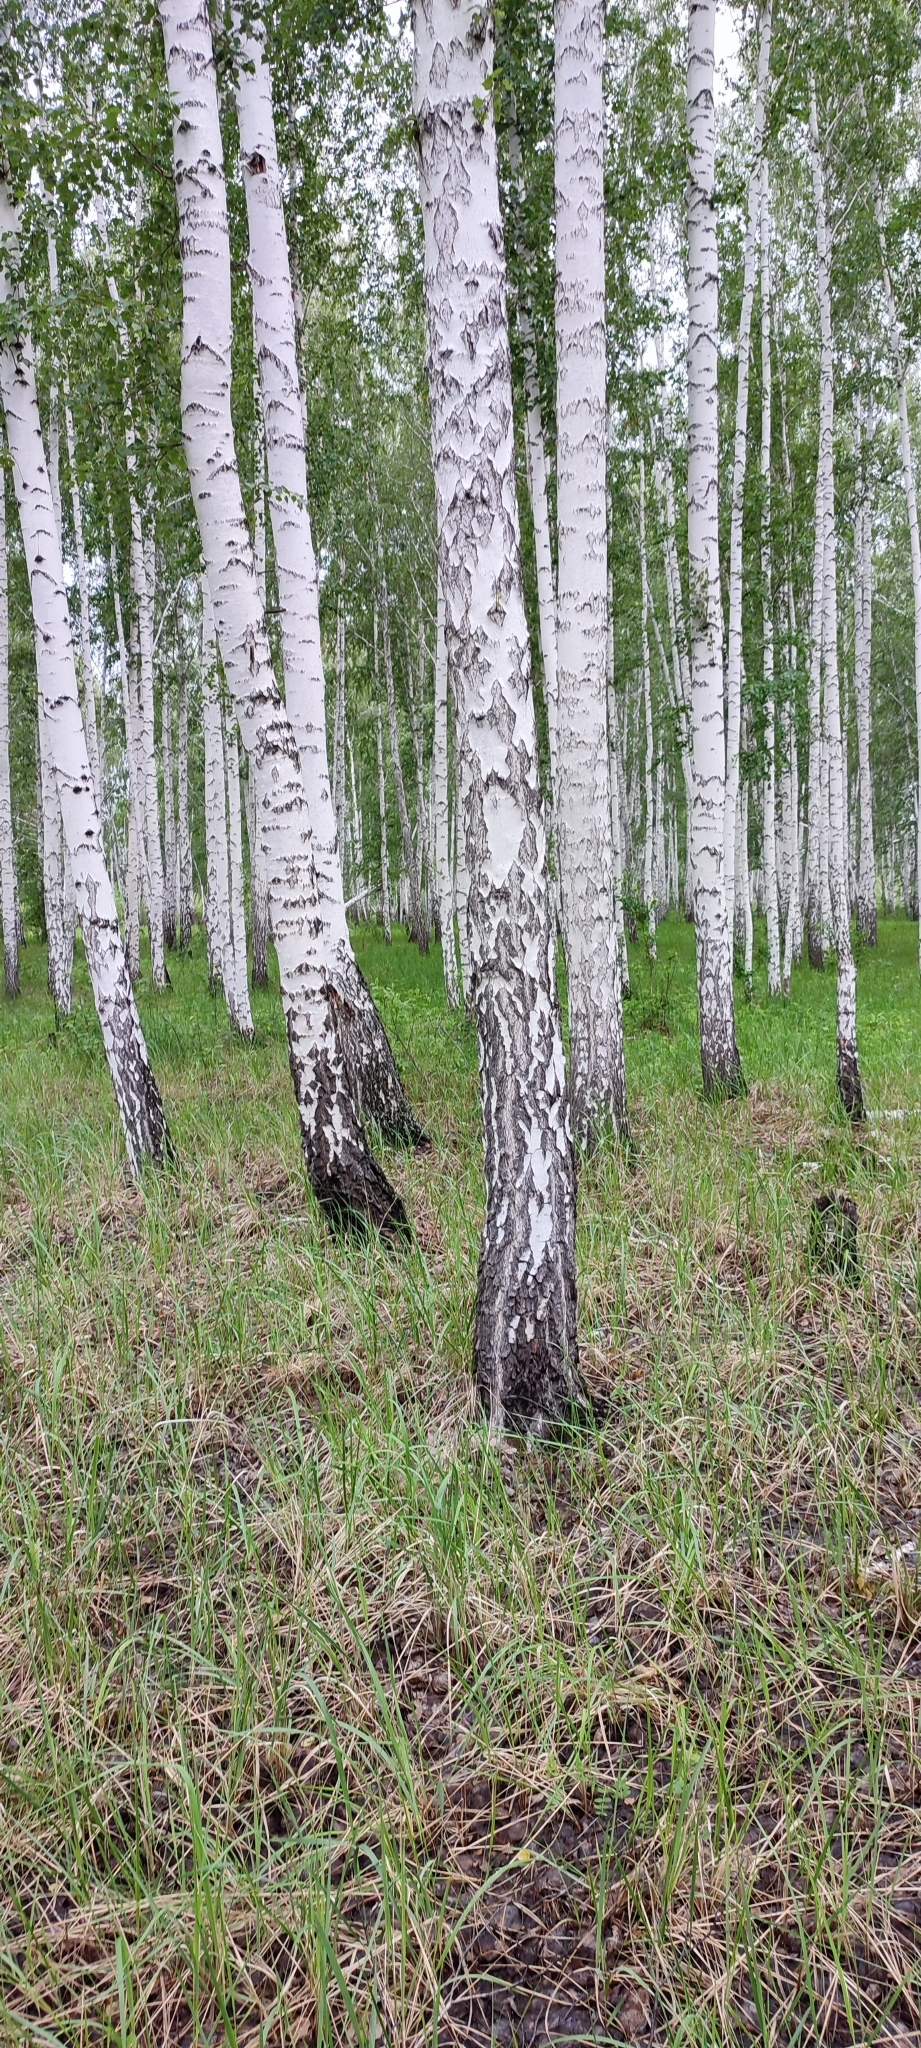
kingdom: Plantae
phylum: Tracheophyta
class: Magnoliopsida
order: Fagales
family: Betulaceae
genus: Betula
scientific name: Betula pendula
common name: Silver birch
